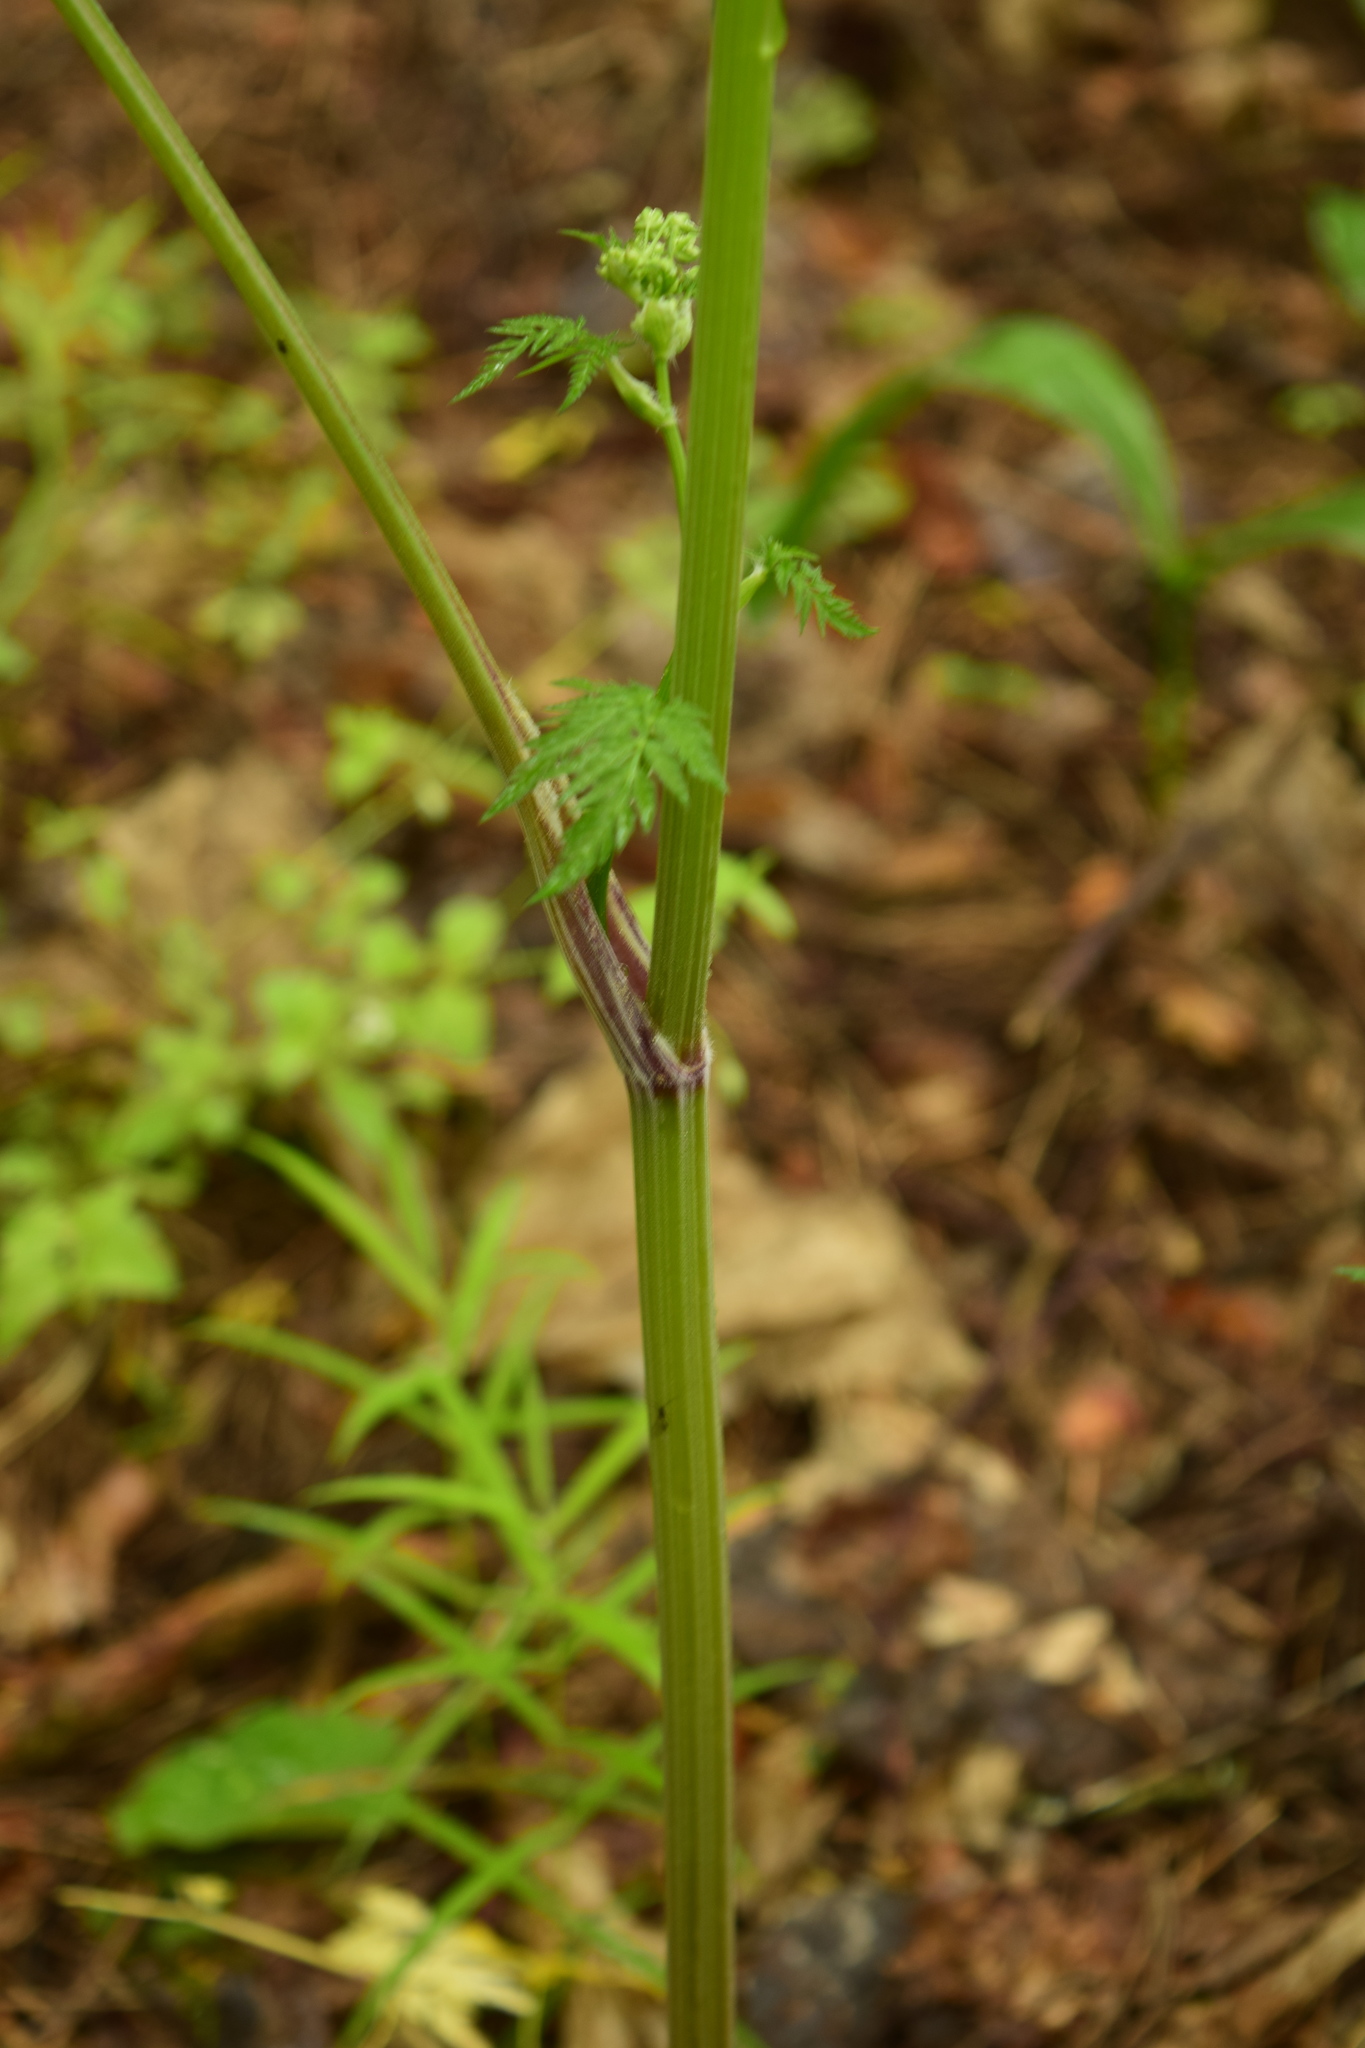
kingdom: Plantae
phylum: Tracheophyta
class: Magnoliopsida
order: Apiales
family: Apiaceae
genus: Anthriscus
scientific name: Anthriscus sylvestris
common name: Cow parsley
